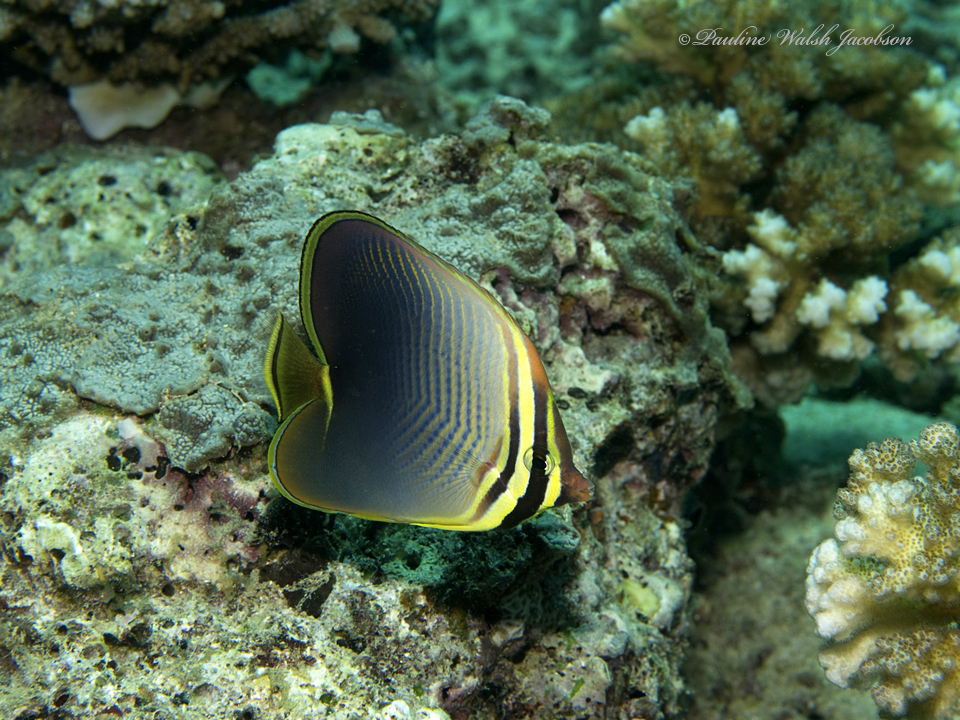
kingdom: Animalia
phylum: Chordata
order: Perciformes
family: Chaetodontidae
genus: Chaetodon
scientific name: Chaetodon baronessa
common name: Triangular butterflyfish
